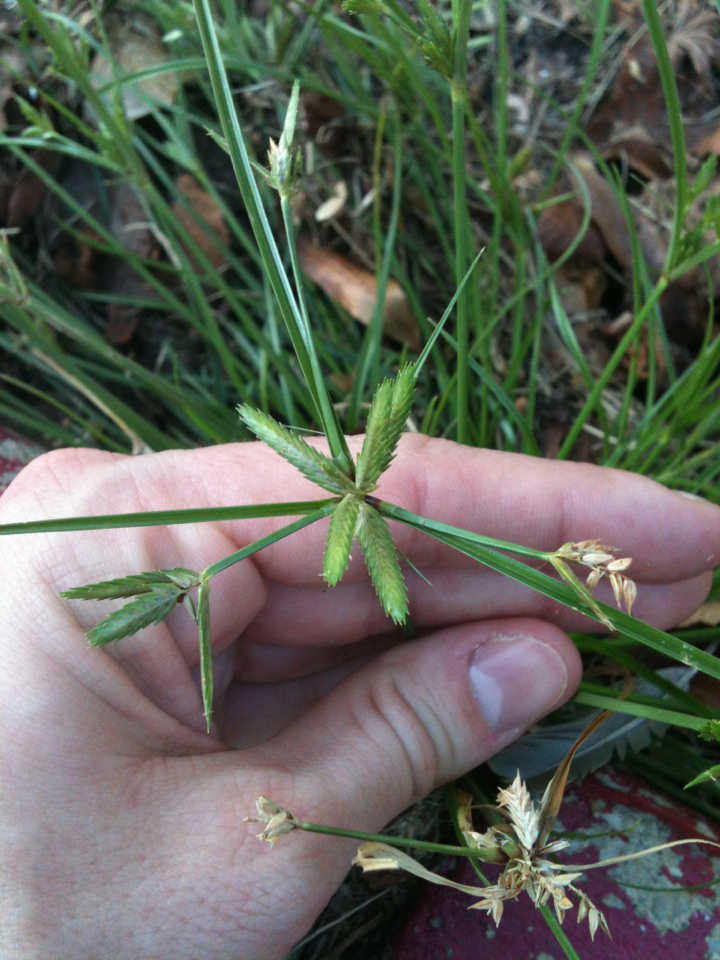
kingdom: Plantae
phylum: Tracheophyta
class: Liliopsida
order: Poales
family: Cyperaceae
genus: Cyperus
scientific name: Cyperus compressus
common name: Poorland flatsedge
